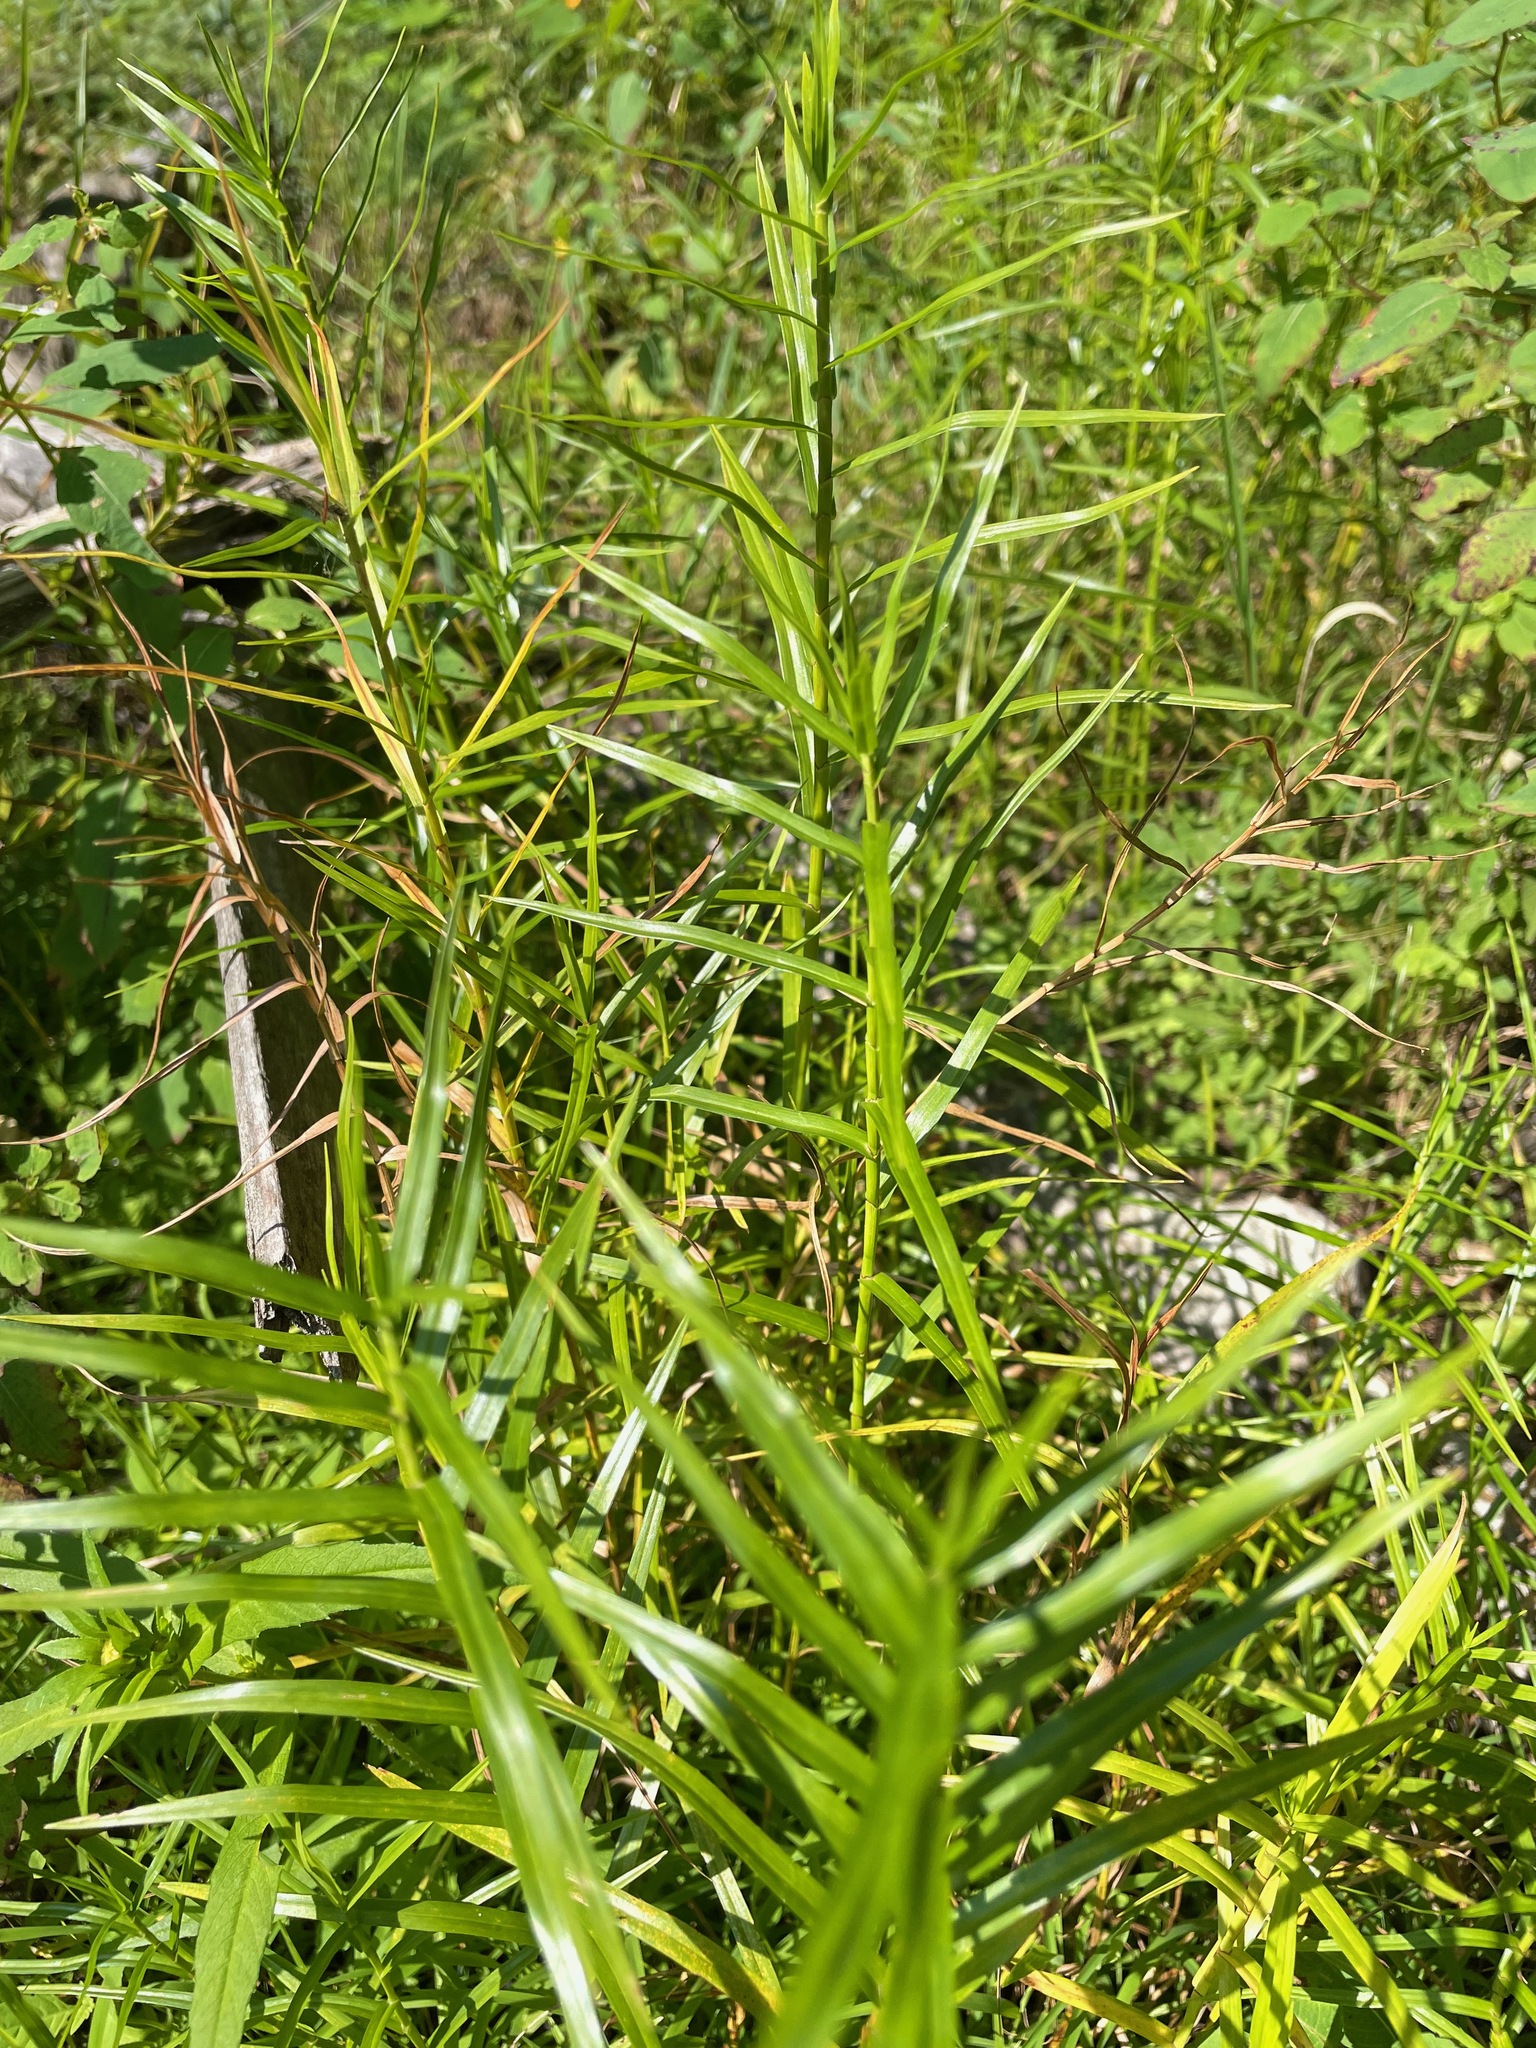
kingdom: Plantae
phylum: Tracheophyta
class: Liliopsida
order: Poales
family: Cyperaceae
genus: Dulichium
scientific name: Dulichium arundinaceum
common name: Three-way sedge
